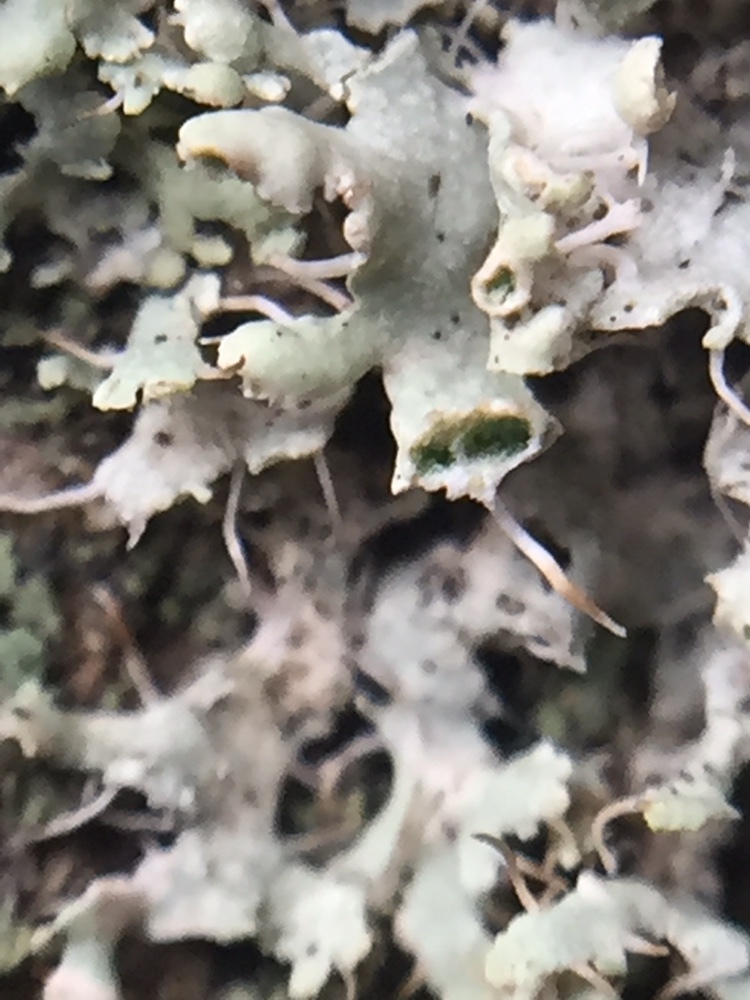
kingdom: Fungi
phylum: Ascomycota
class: Lecanoromycetes
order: Caliciales
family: Physciaceae
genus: Physcia
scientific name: Physcia adscendens
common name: Hooded rosette lichen
